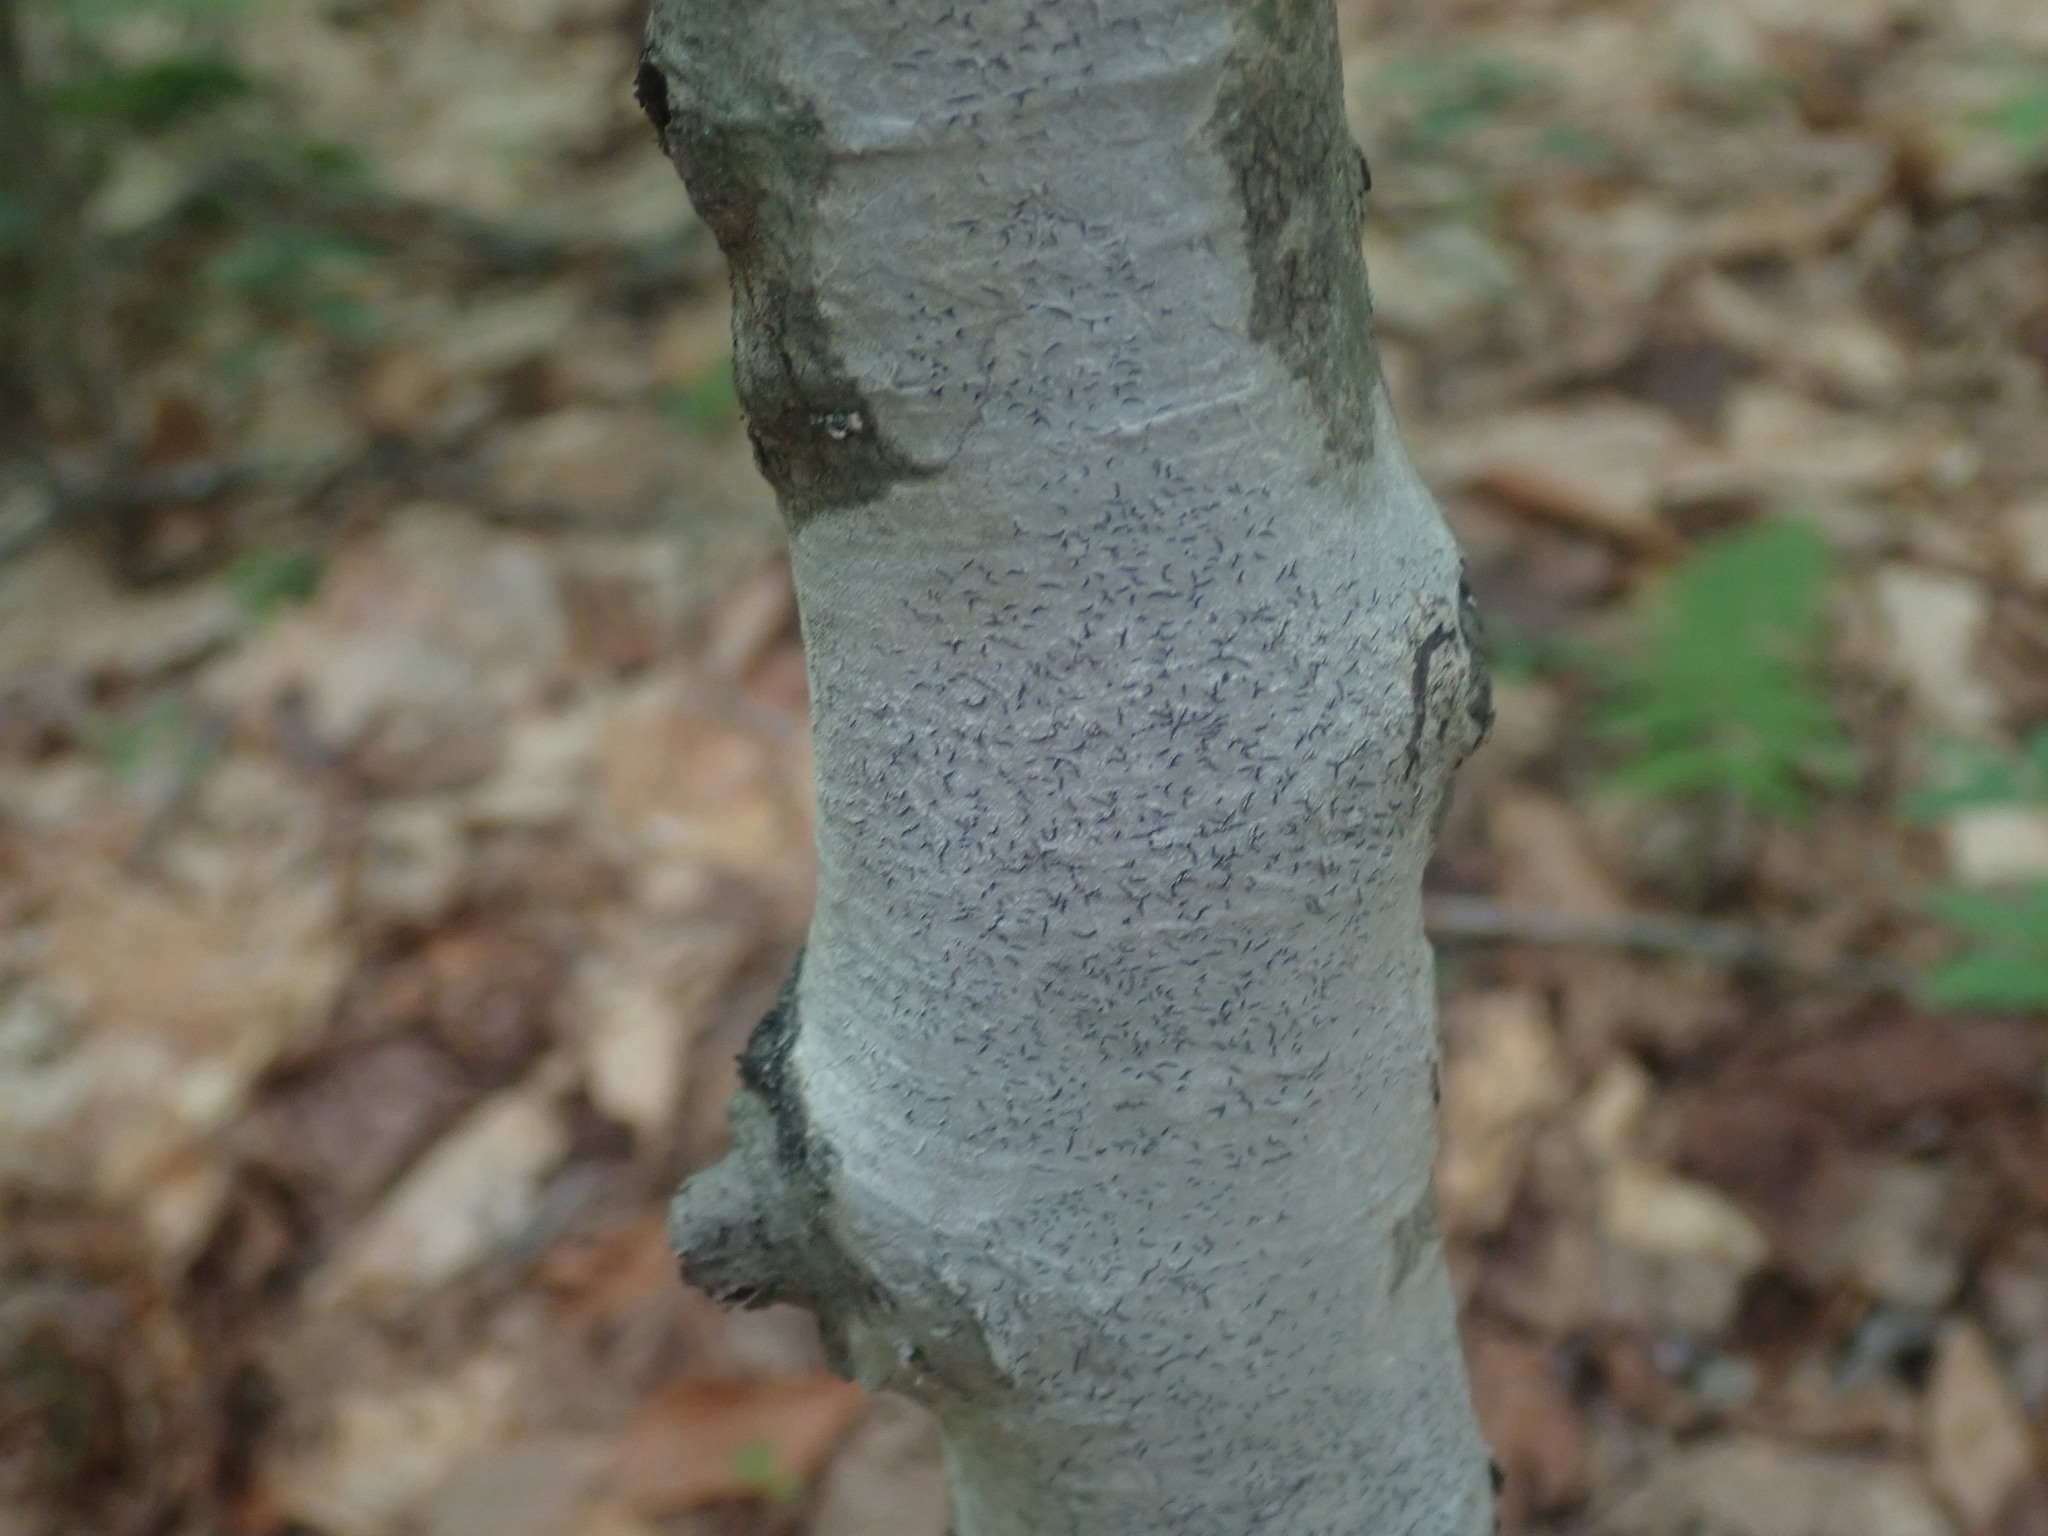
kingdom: Fungi
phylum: Ascomycota
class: Lecanoromycetes
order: Ostropales
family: Graphidaceae
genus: Graphis
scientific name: Graphis scripta
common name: Script lichen
